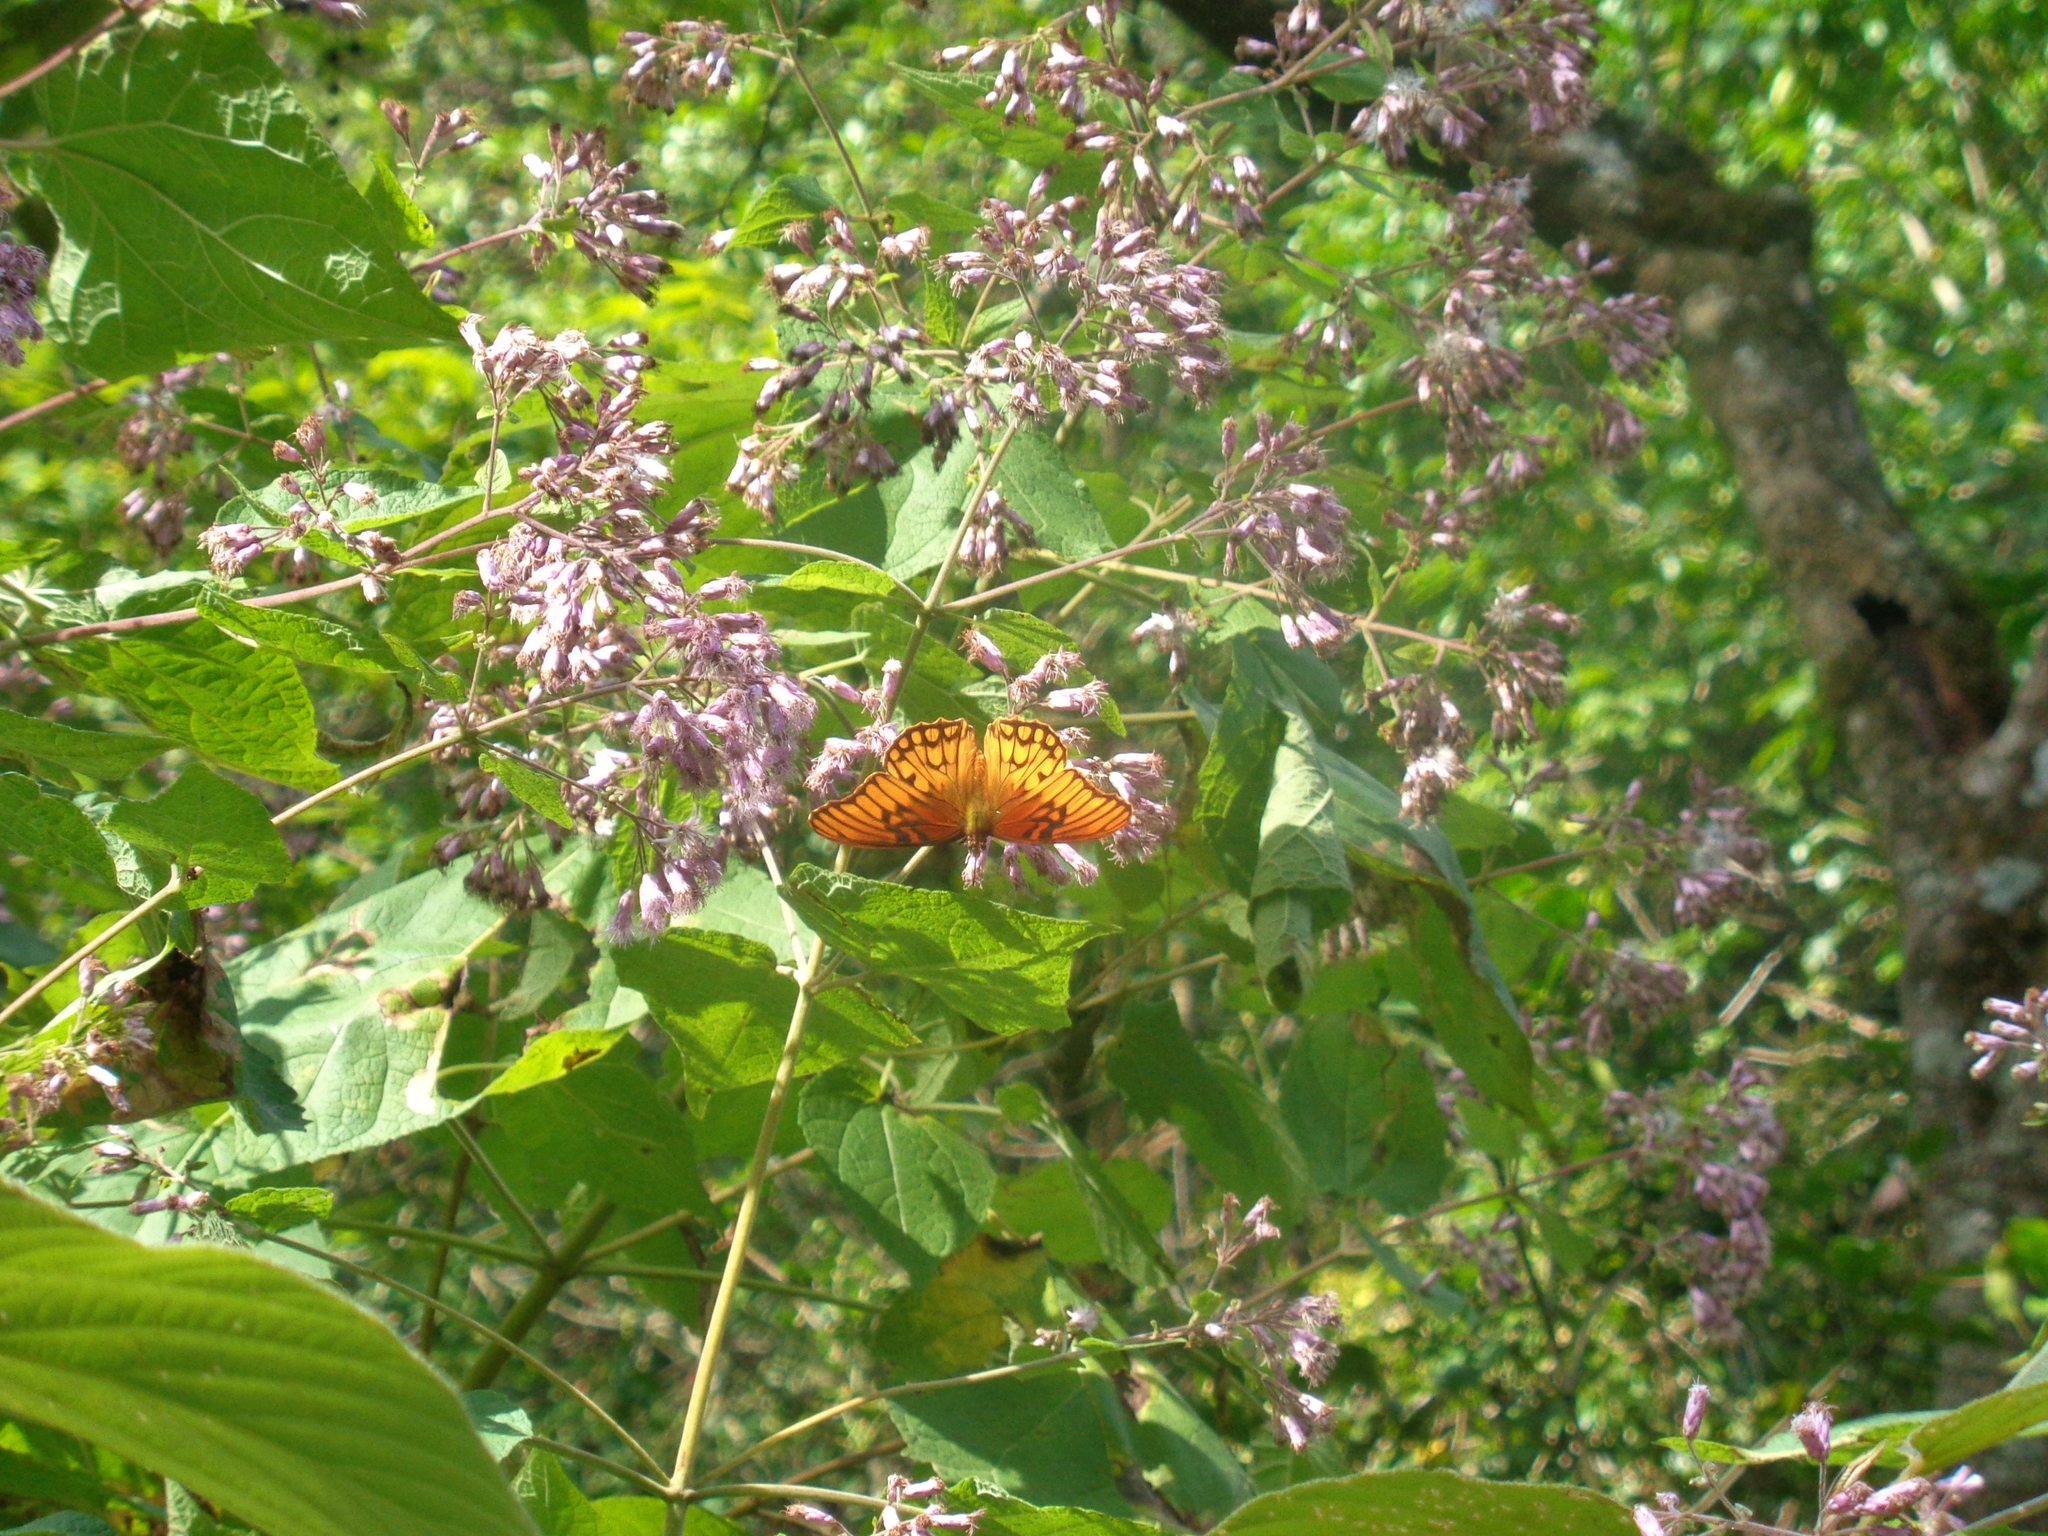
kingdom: Animalia
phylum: Arthropoda
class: Insecta
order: Lepidoptera
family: Nymphalidae
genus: Dione
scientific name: Dione moneta
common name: Mexican silverspot
